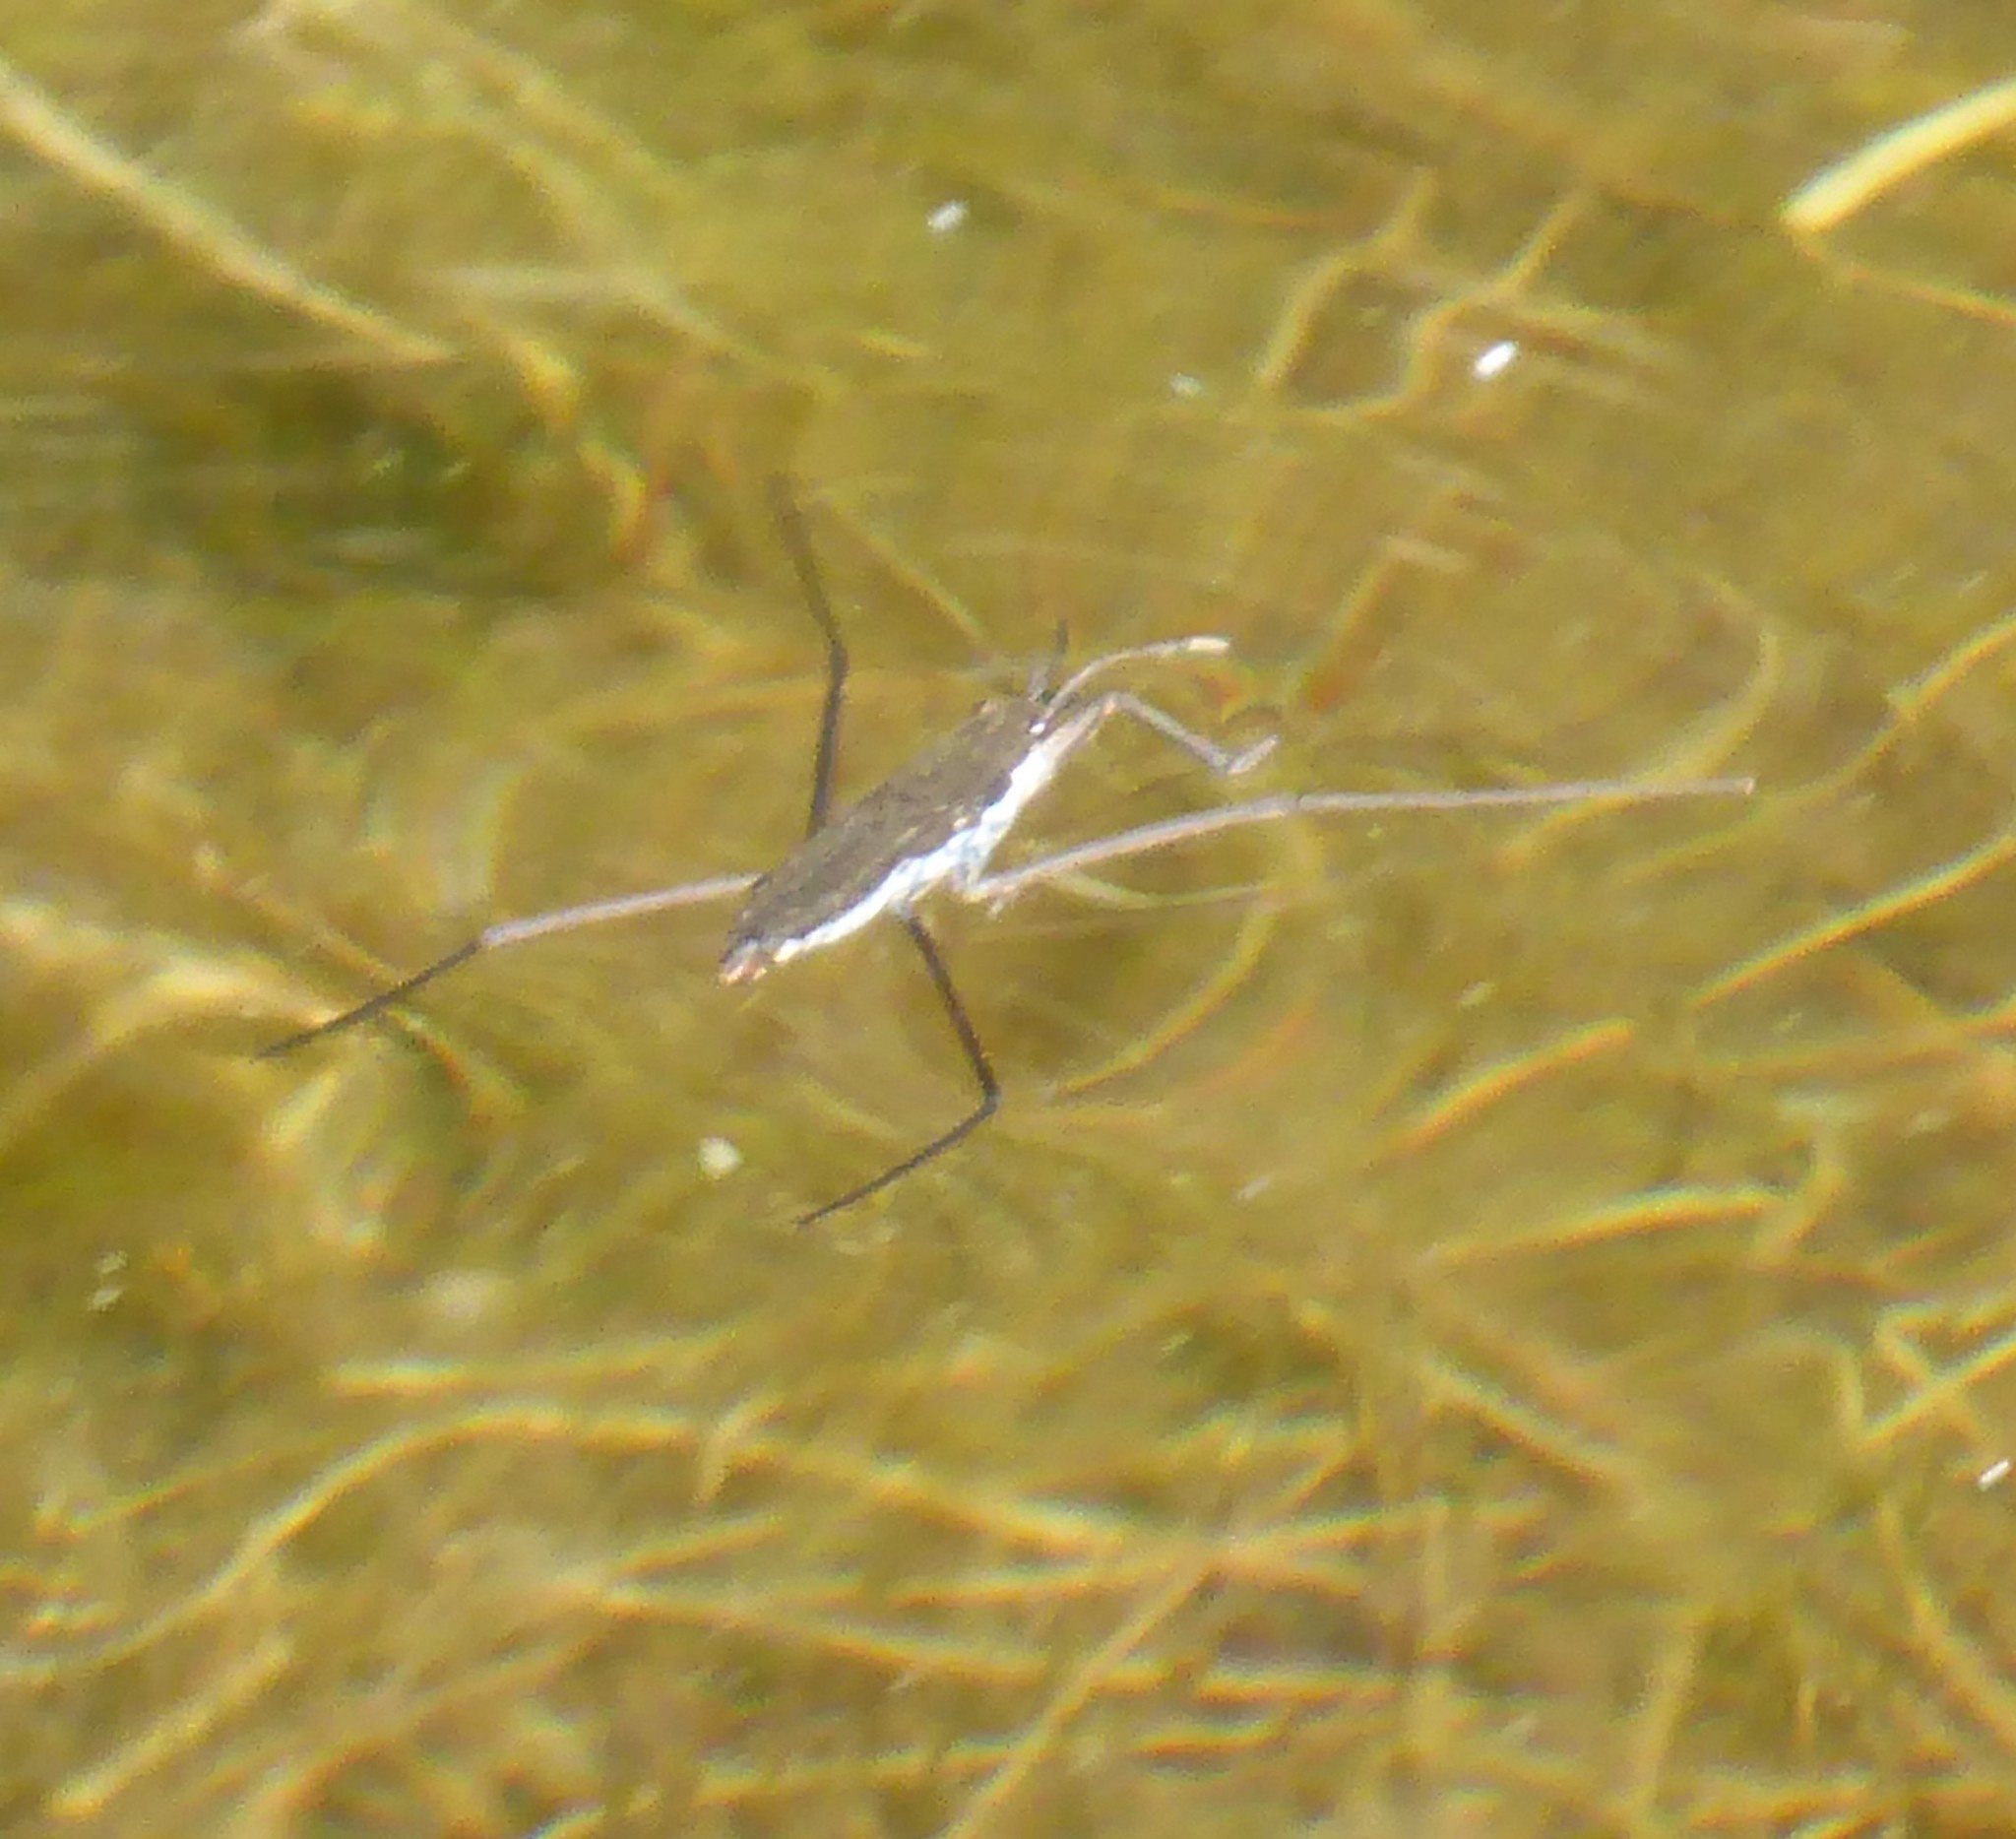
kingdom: Animalia
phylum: Arthropoda
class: Insecta
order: Hemiptera
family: Gerridae
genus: Aquarius
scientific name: Aquarius remigis
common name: Common water strider
